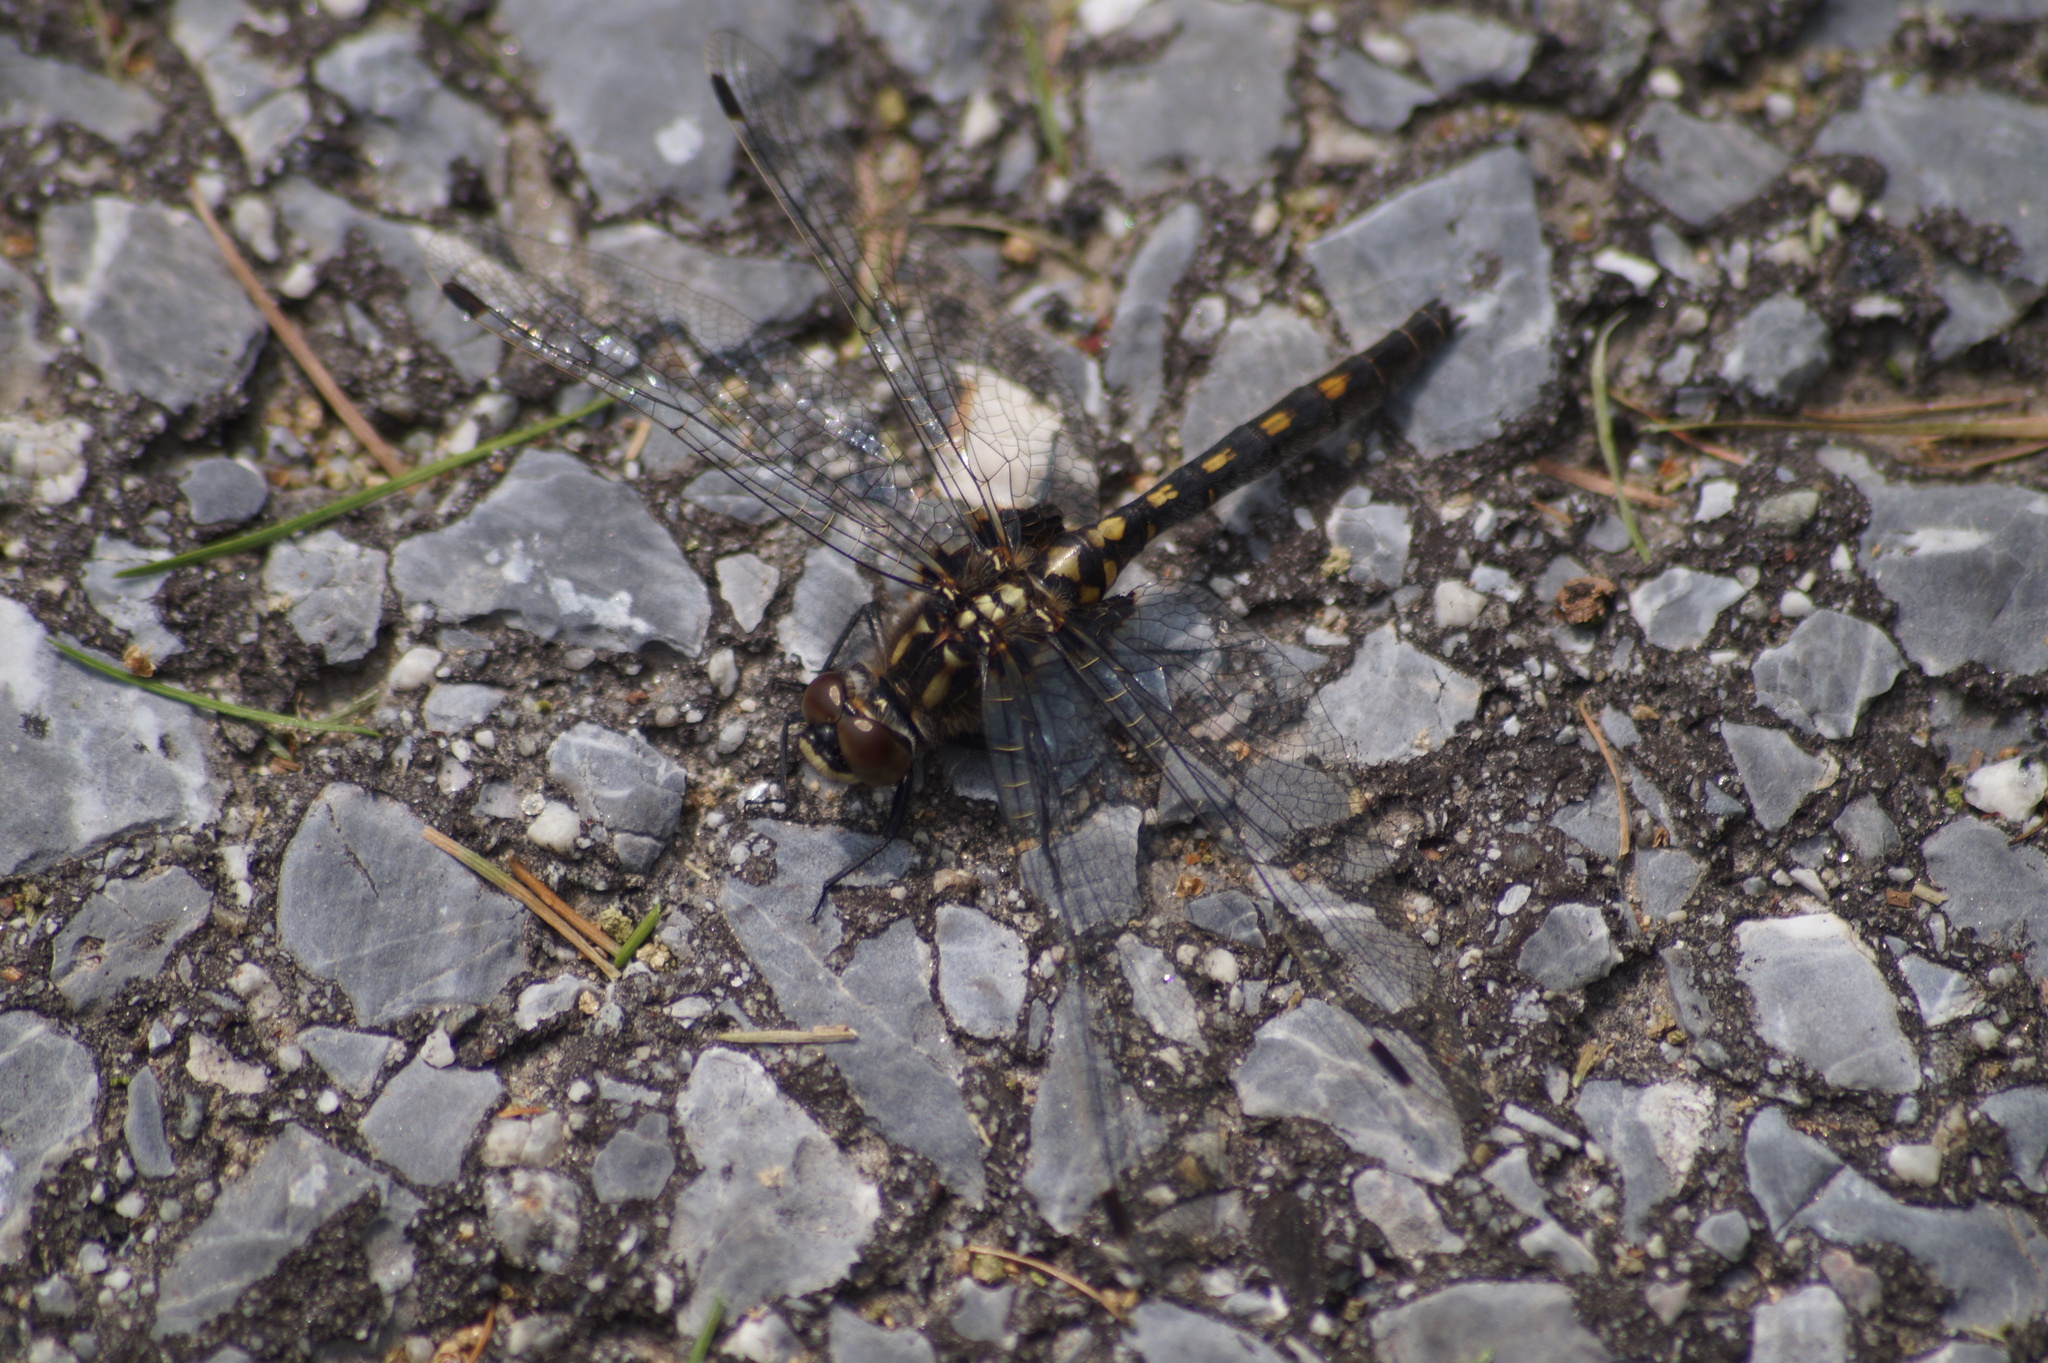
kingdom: Animalia
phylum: Arthropoda
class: Insecta
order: Odonata
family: Libellulidae
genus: Leucorrhinia
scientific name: Leucorrhinia dubia
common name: White-faced darter
